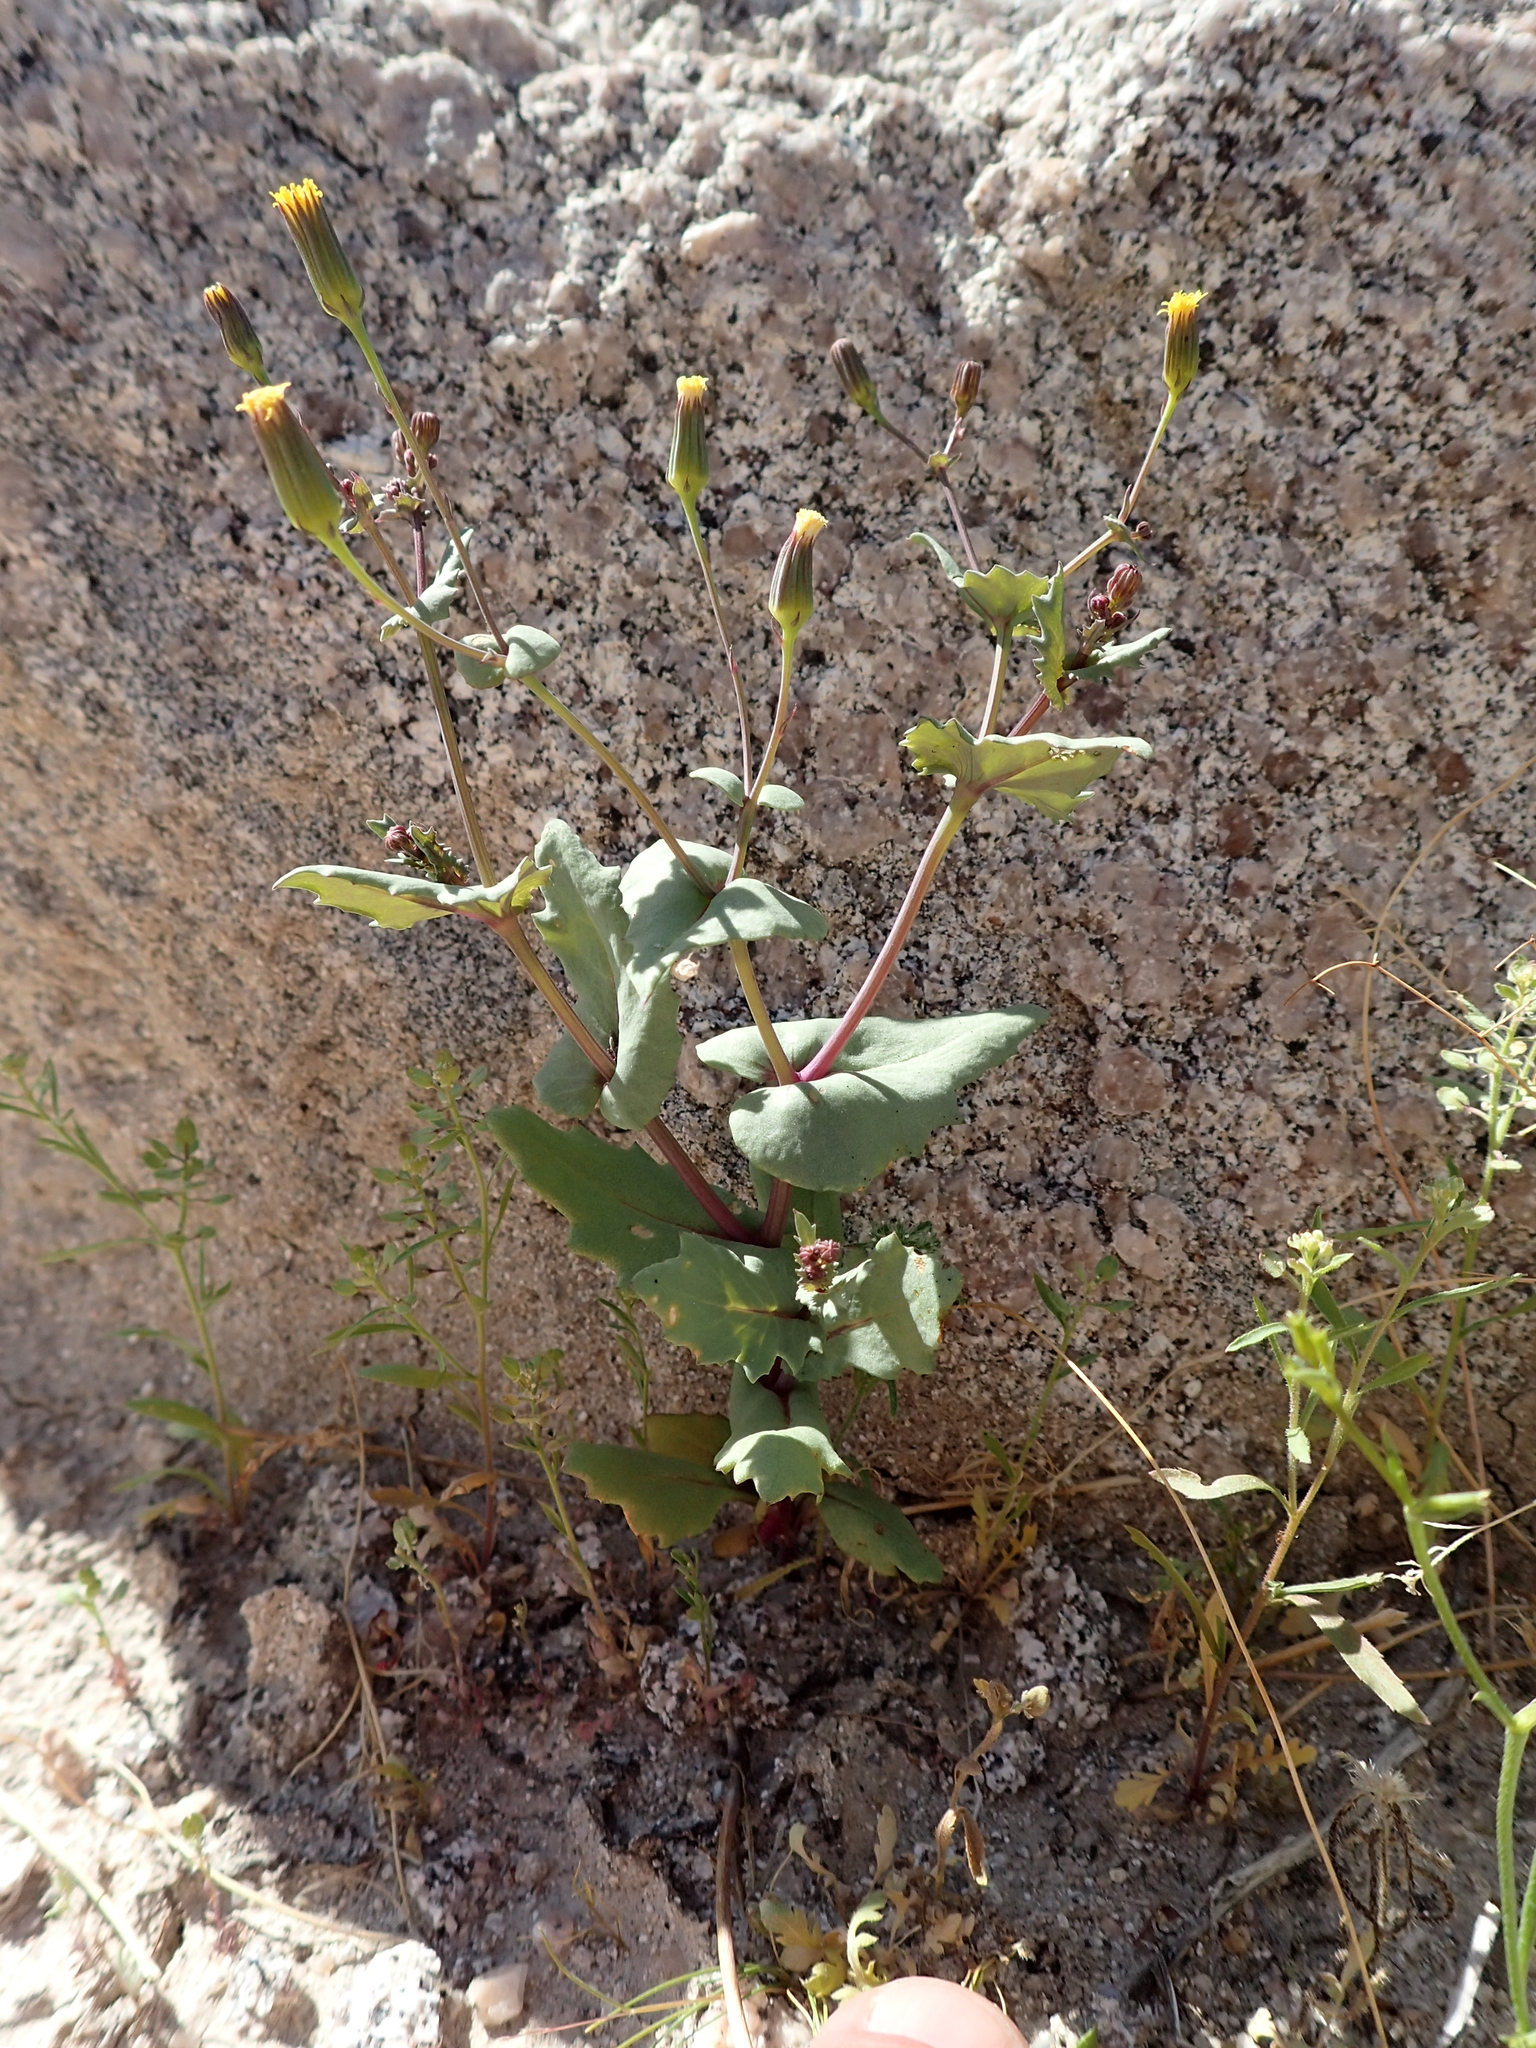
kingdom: Plantae
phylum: Tracheophyta
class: Magnoliopsida
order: Asterales
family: Asteraceae
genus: Senecio
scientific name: Senecio mohavensis
